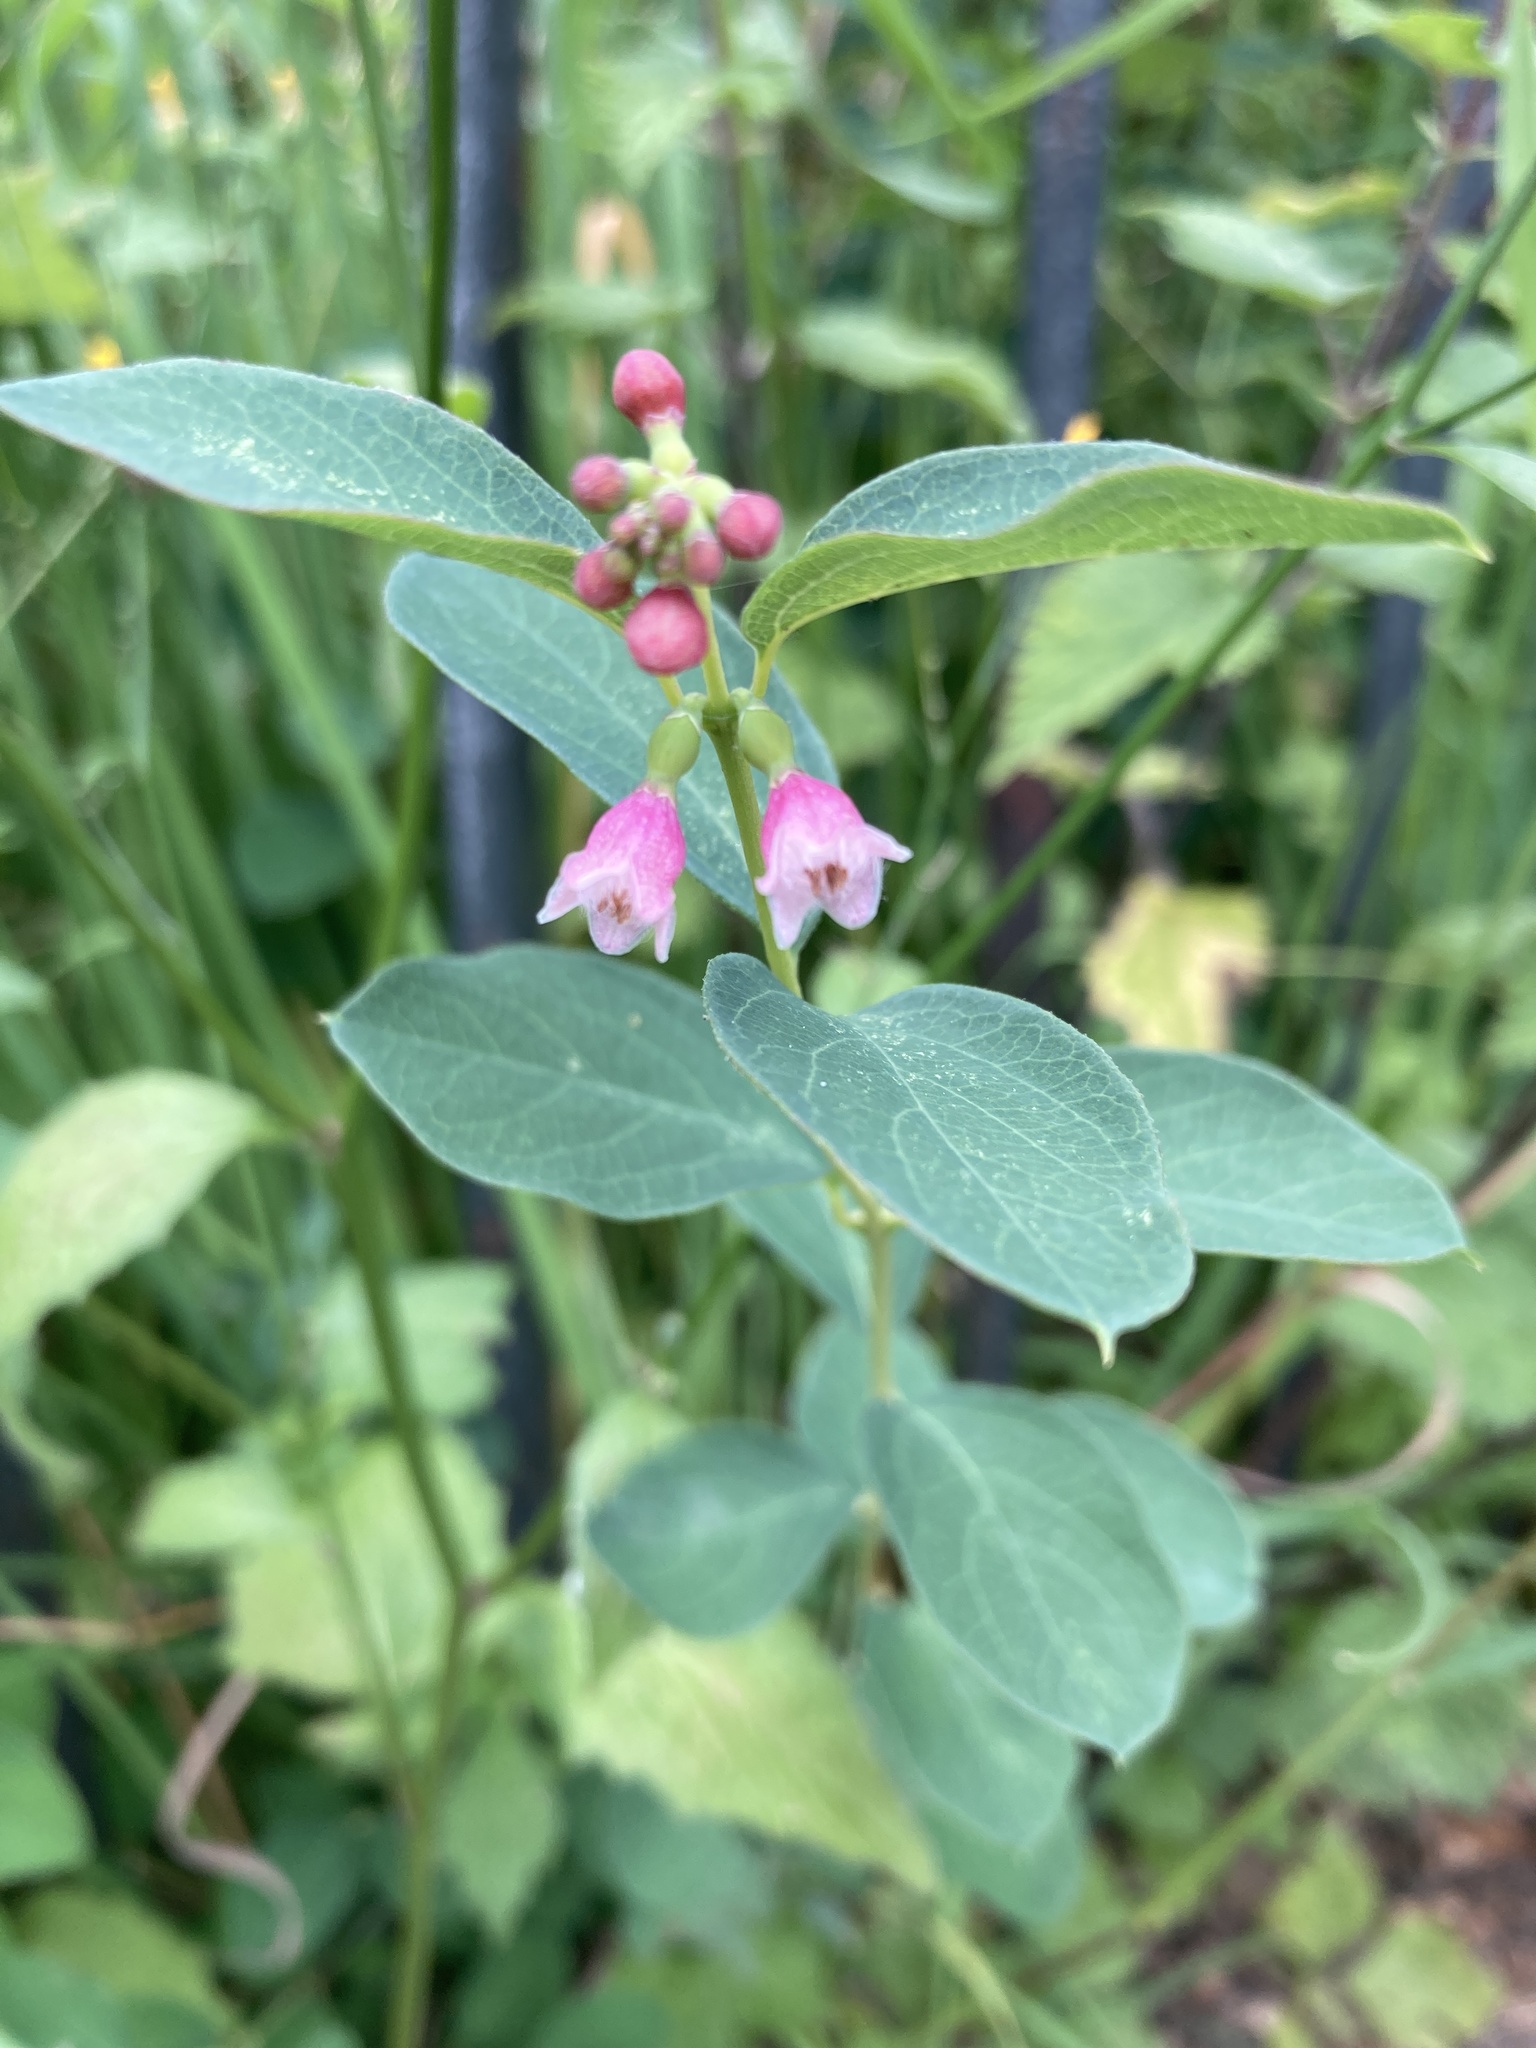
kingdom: Plantae
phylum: Tracheophyta
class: Magnoliopsida
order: Dipsacales
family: Caprifoliaceae
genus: Symphoricarpos
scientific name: Symphoricarpos albus
